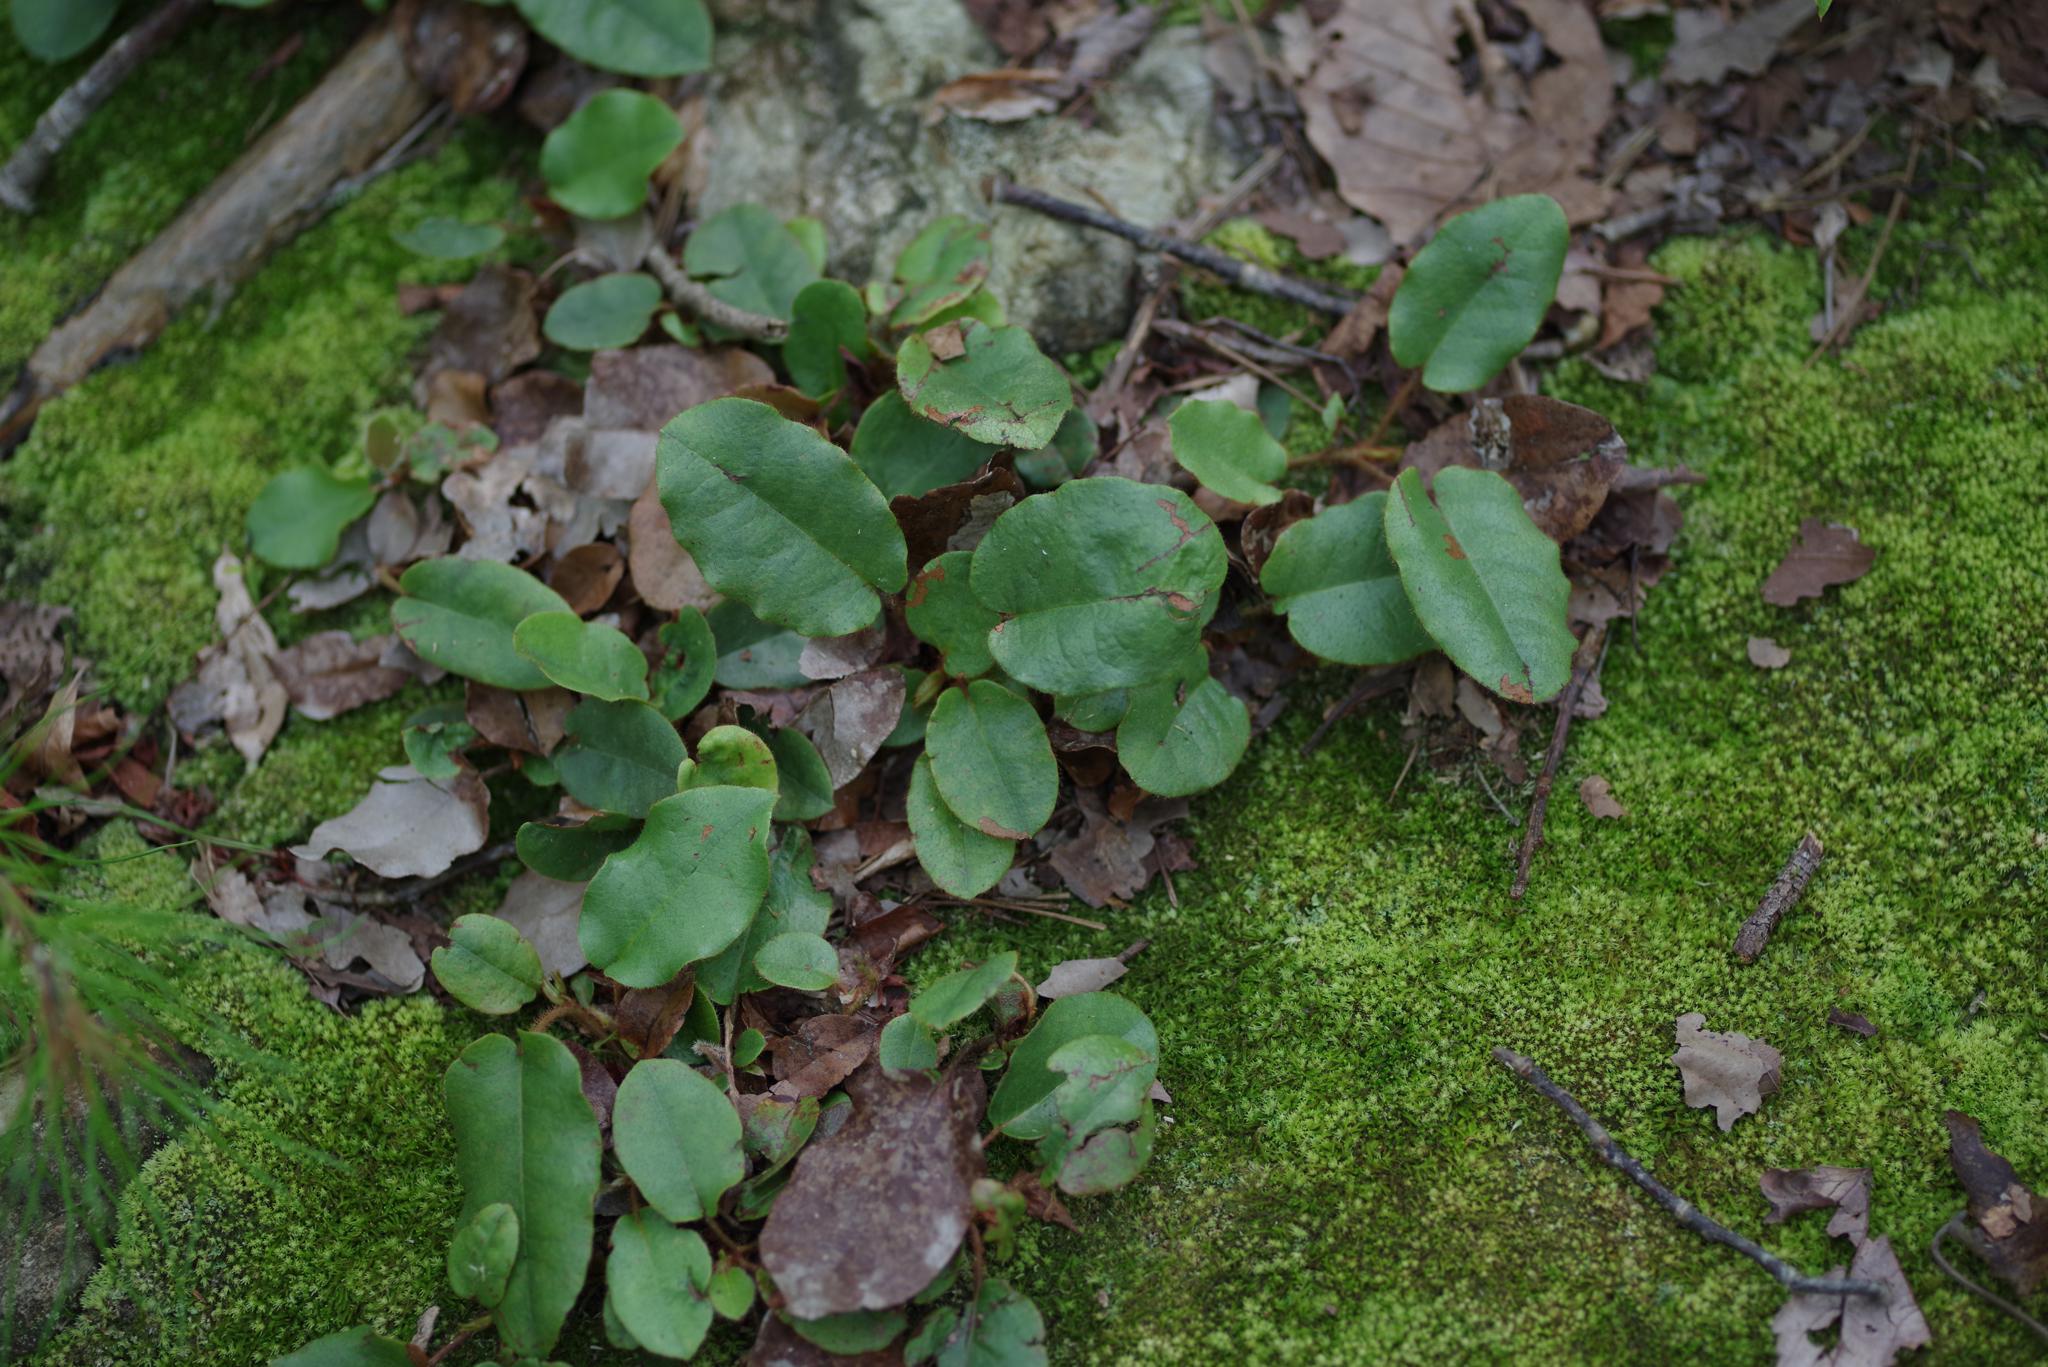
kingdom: Plantae
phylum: Tracheophyta
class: Magnoliopsida
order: Ericales
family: Ericaceae
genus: Epigaea
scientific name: Epigaea repens
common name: Gravelroot
